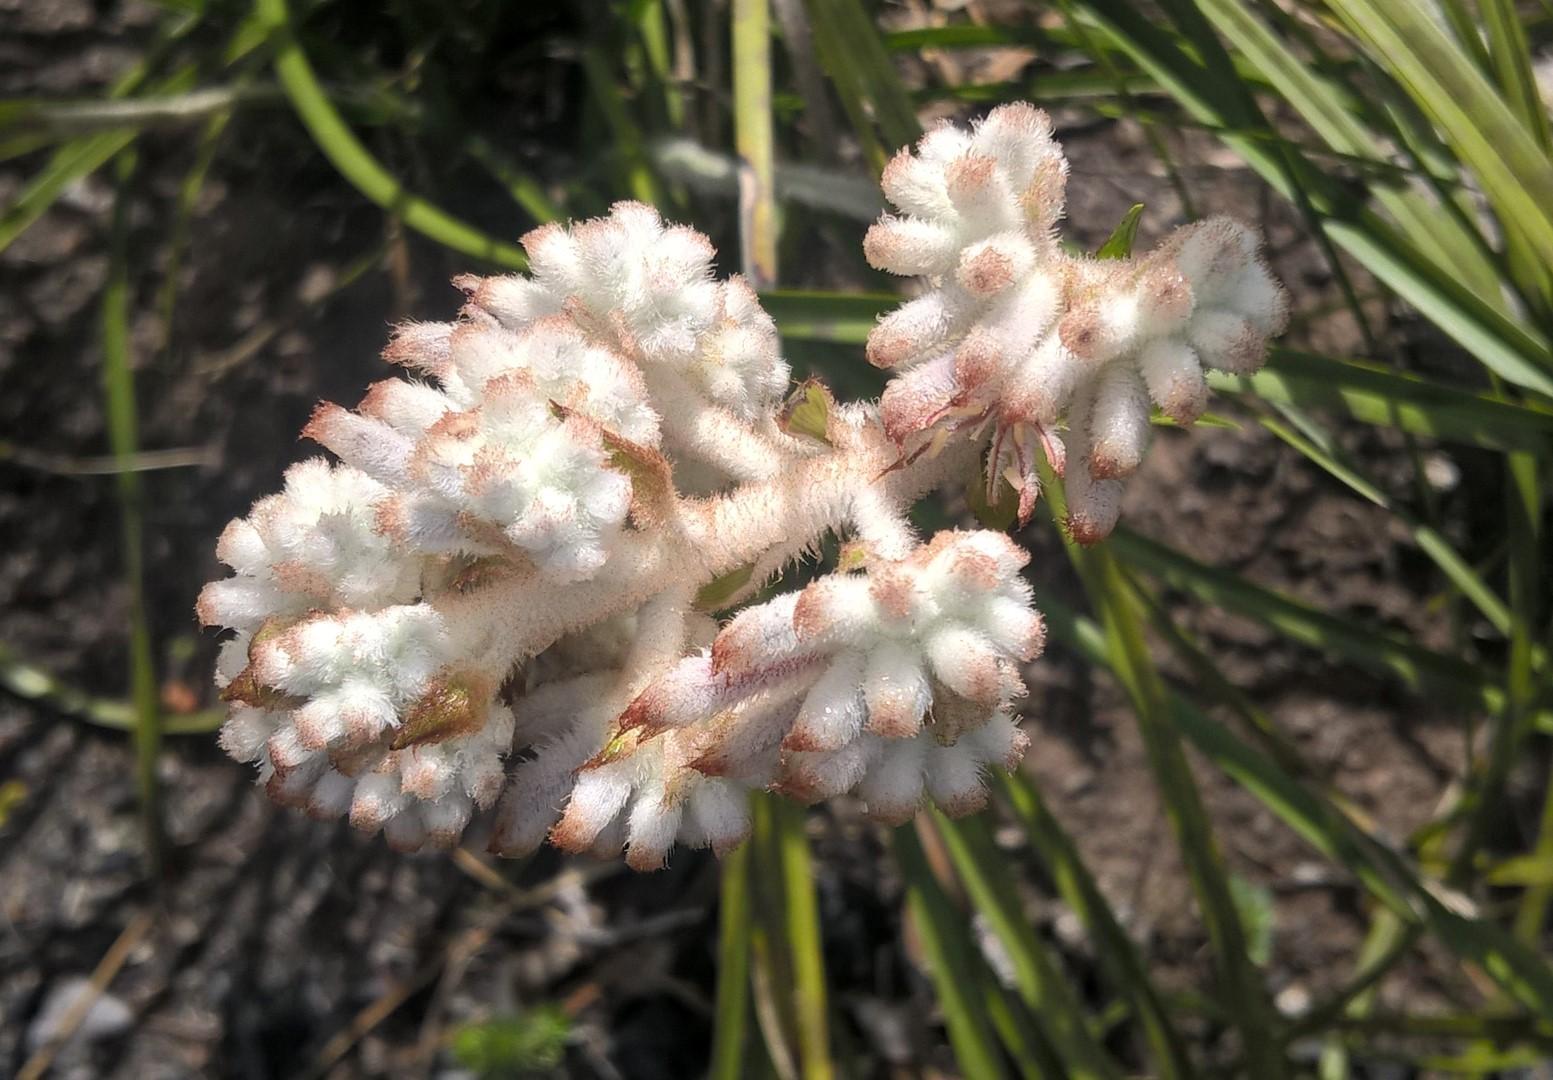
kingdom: Plantae
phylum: Tracheophyta
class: Liliopsida
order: Asparagales
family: Lanariaceae
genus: Lanaria
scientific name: Lanaria lanata
